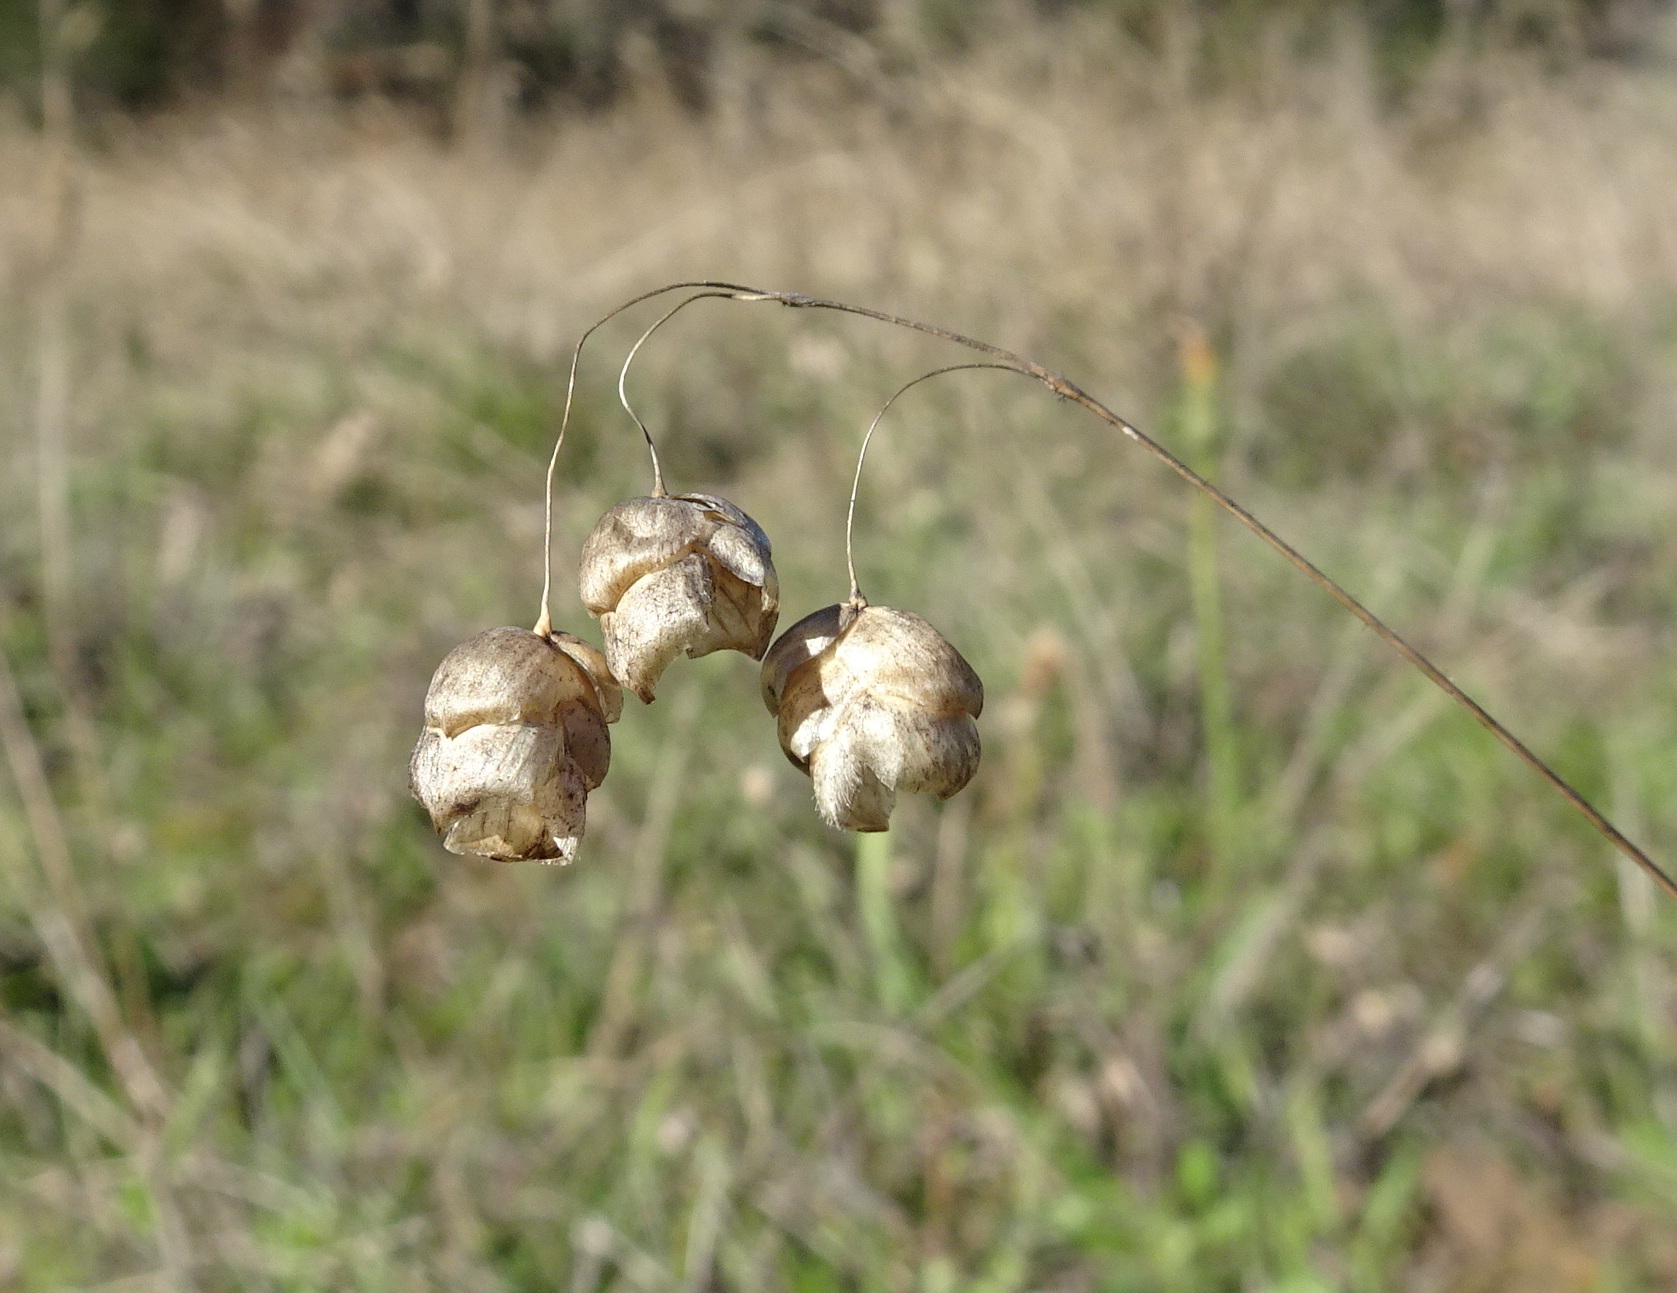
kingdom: Plantae
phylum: Tracheophyta
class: Liliopsida
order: Poales
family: Poaceae
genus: Briza
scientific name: Briza maxima
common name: Big quakinggrass
